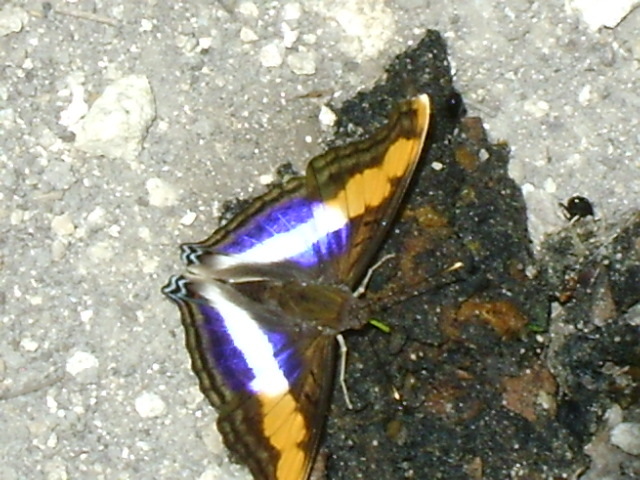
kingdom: Animalia
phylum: Arthropoda
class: Insecta
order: Lepidoptera
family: Nymphalidae
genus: Doxocopa
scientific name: Doxocopa laure
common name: Silver emperor
